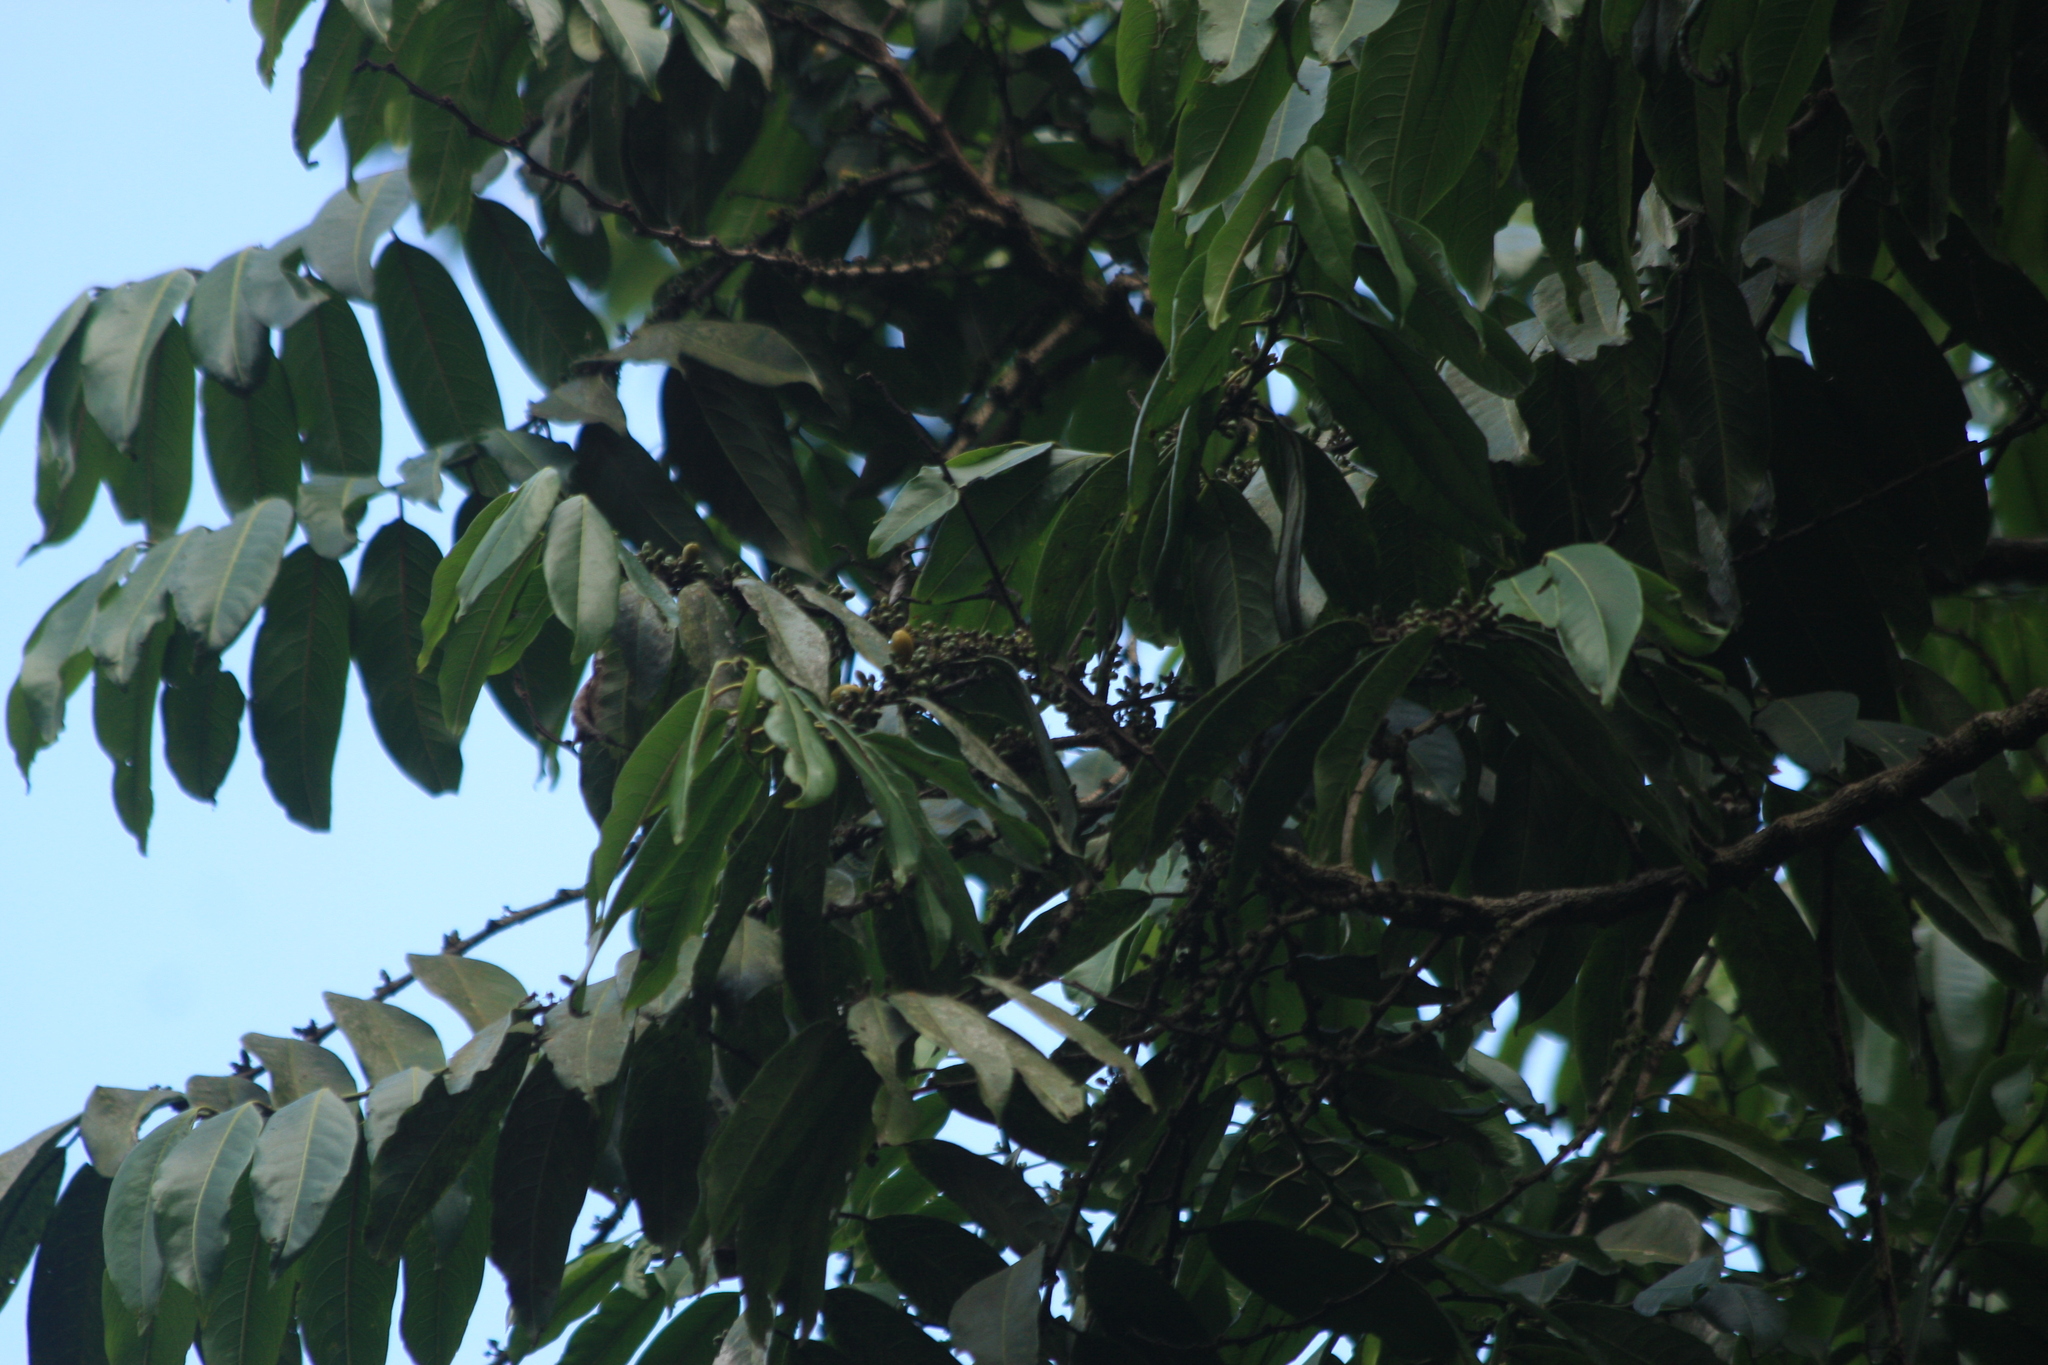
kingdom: Plantae
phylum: Tracheophyta
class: Magnoliopsida
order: Malpighiales
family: Salicaceae
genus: Casearia
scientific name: Casearia
